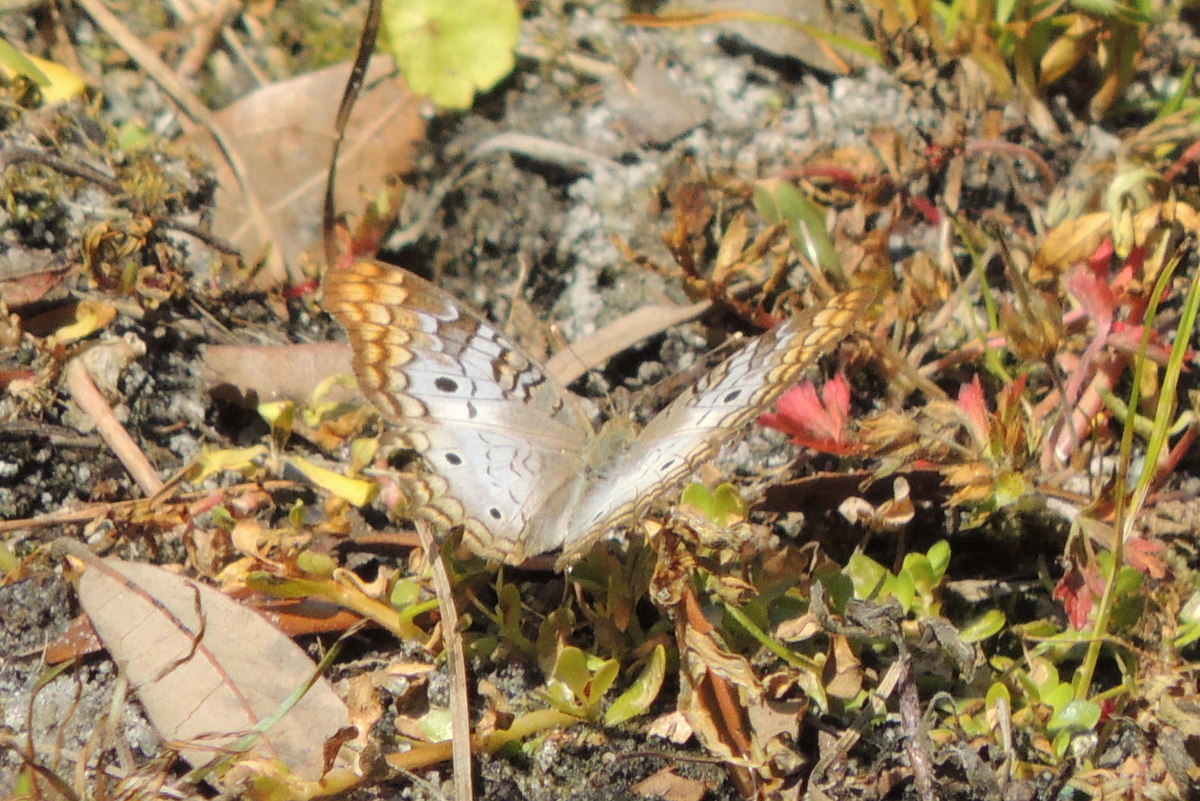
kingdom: Animalia
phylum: Arthropoda
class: Insecta
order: Lepidoptera
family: Nymphalidae
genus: Anartia
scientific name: Anartia jatrophae
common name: White peacock
